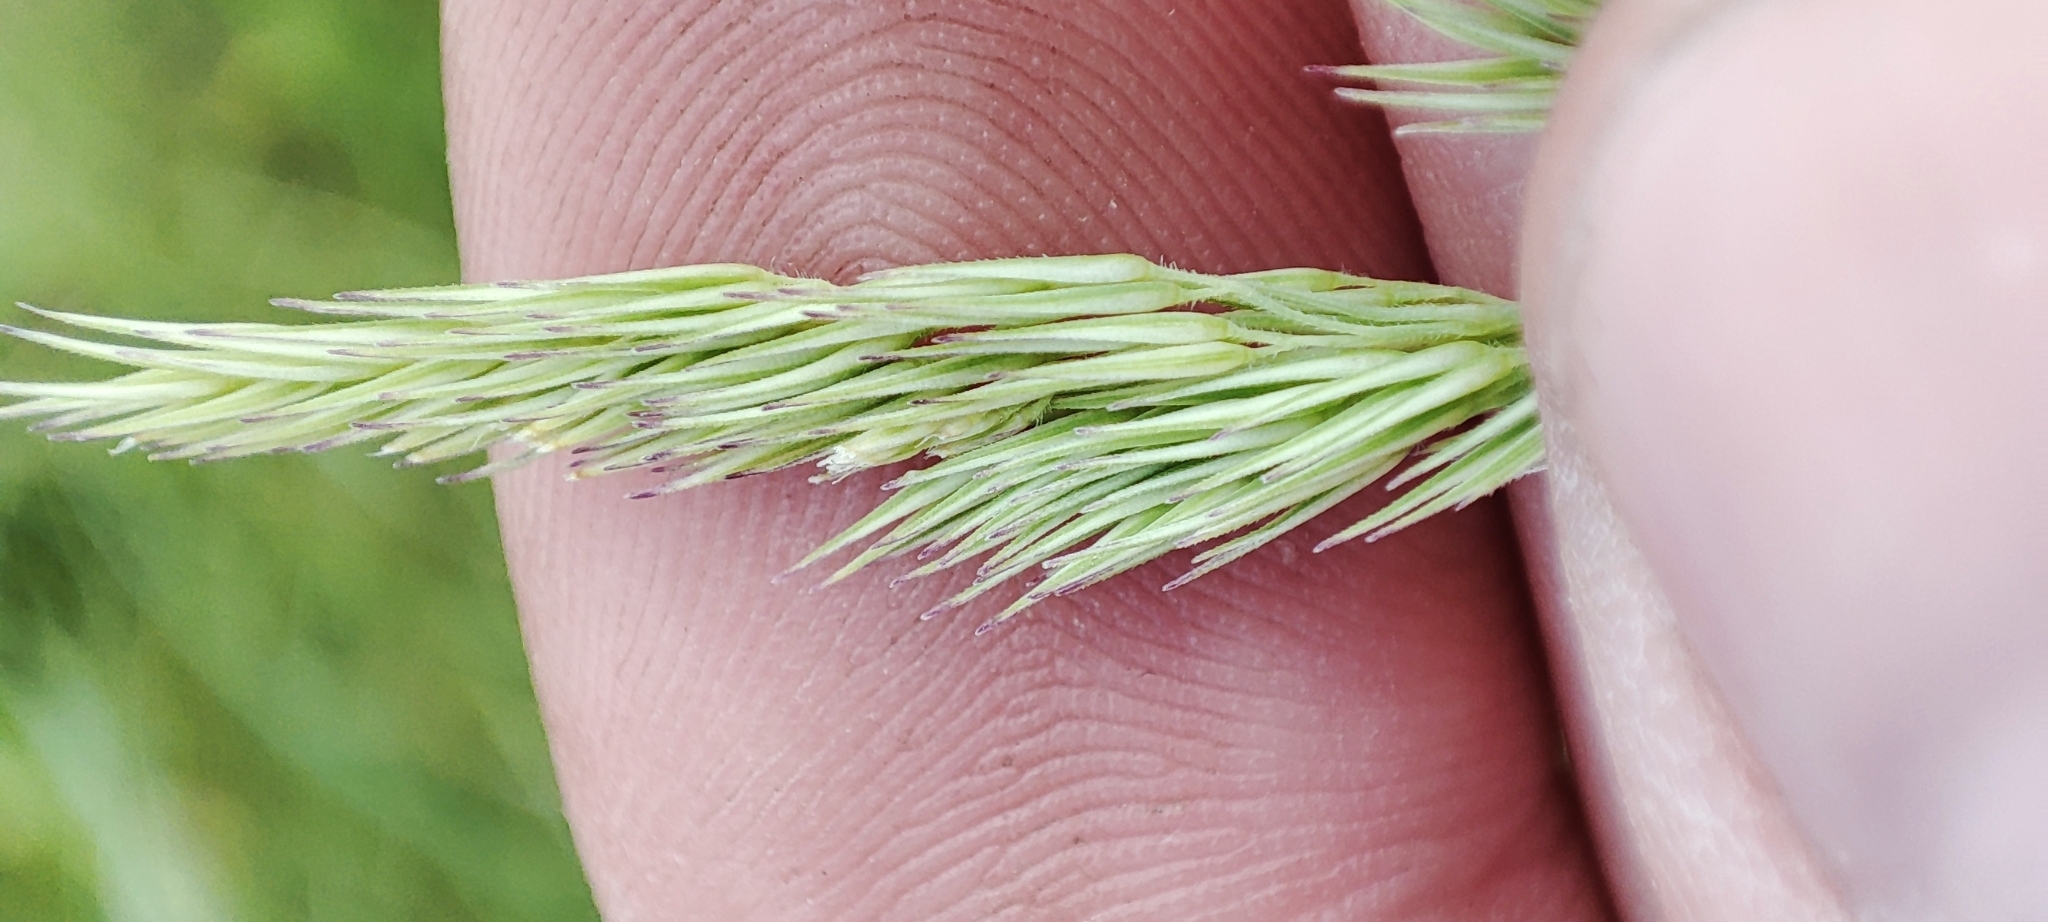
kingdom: Plantae
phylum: Tracheophyta
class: Liliopsida
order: Poales
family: Poaceae
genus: Calamagrostis
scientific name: Calamagrostis epigejos
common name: Wood small-reed
